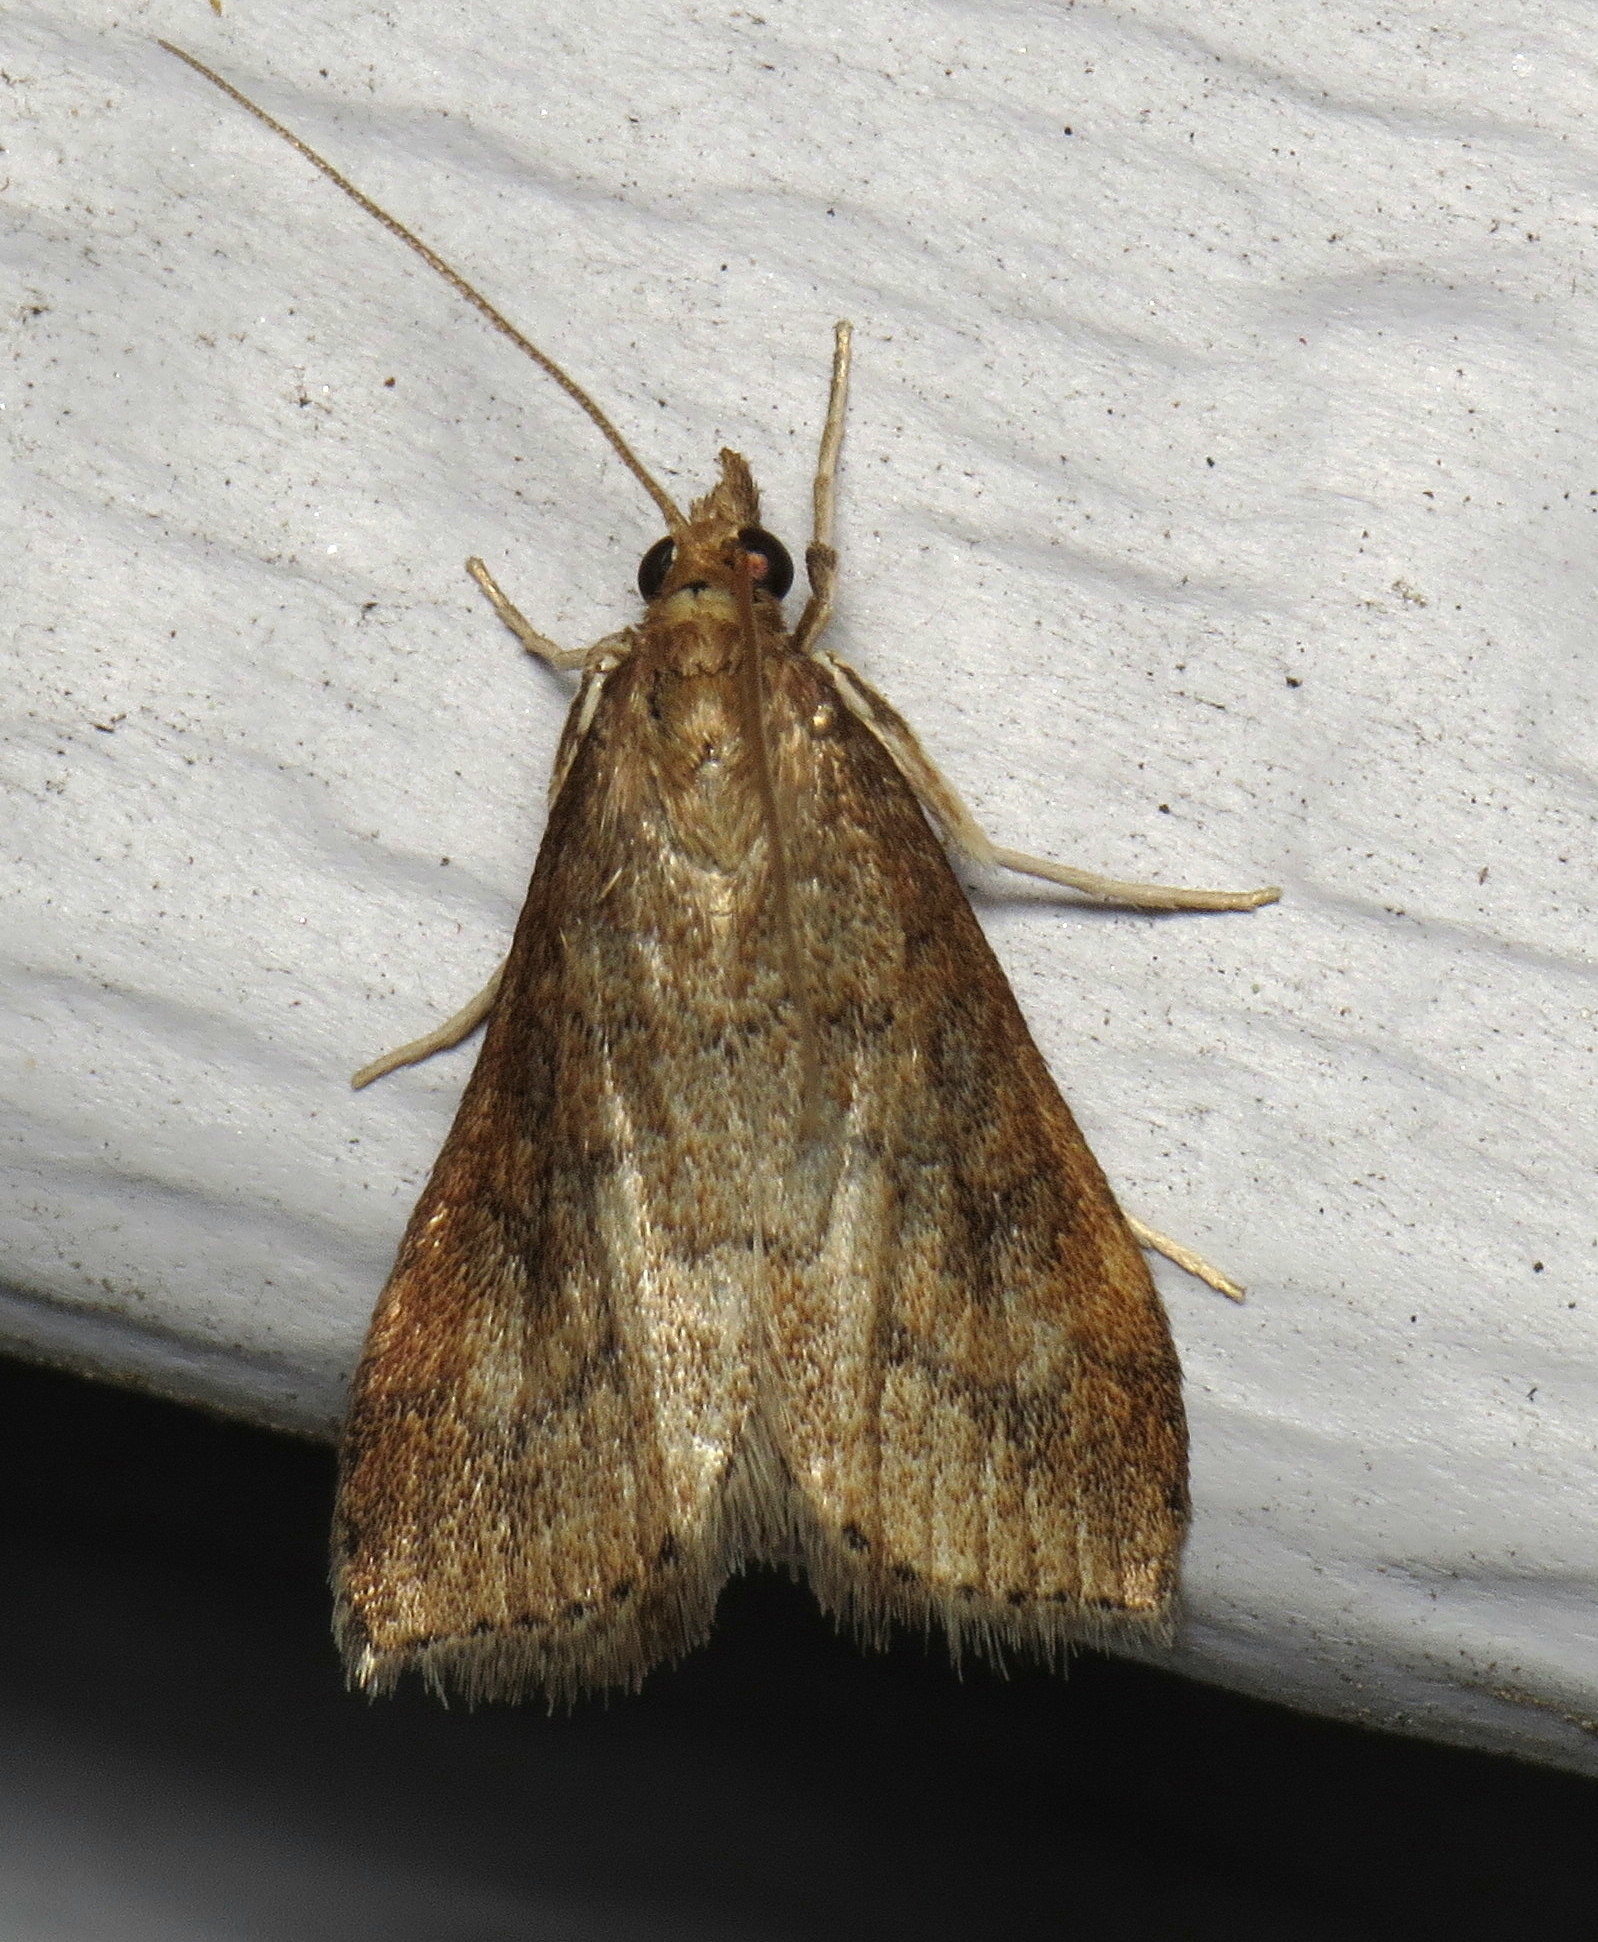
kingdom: Animalia
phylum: Arthropoda
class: Insecta
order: Lepidoptera
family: Crambidae
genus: Udea
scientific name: Udea rubigalis
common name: Celery leaftier moth
